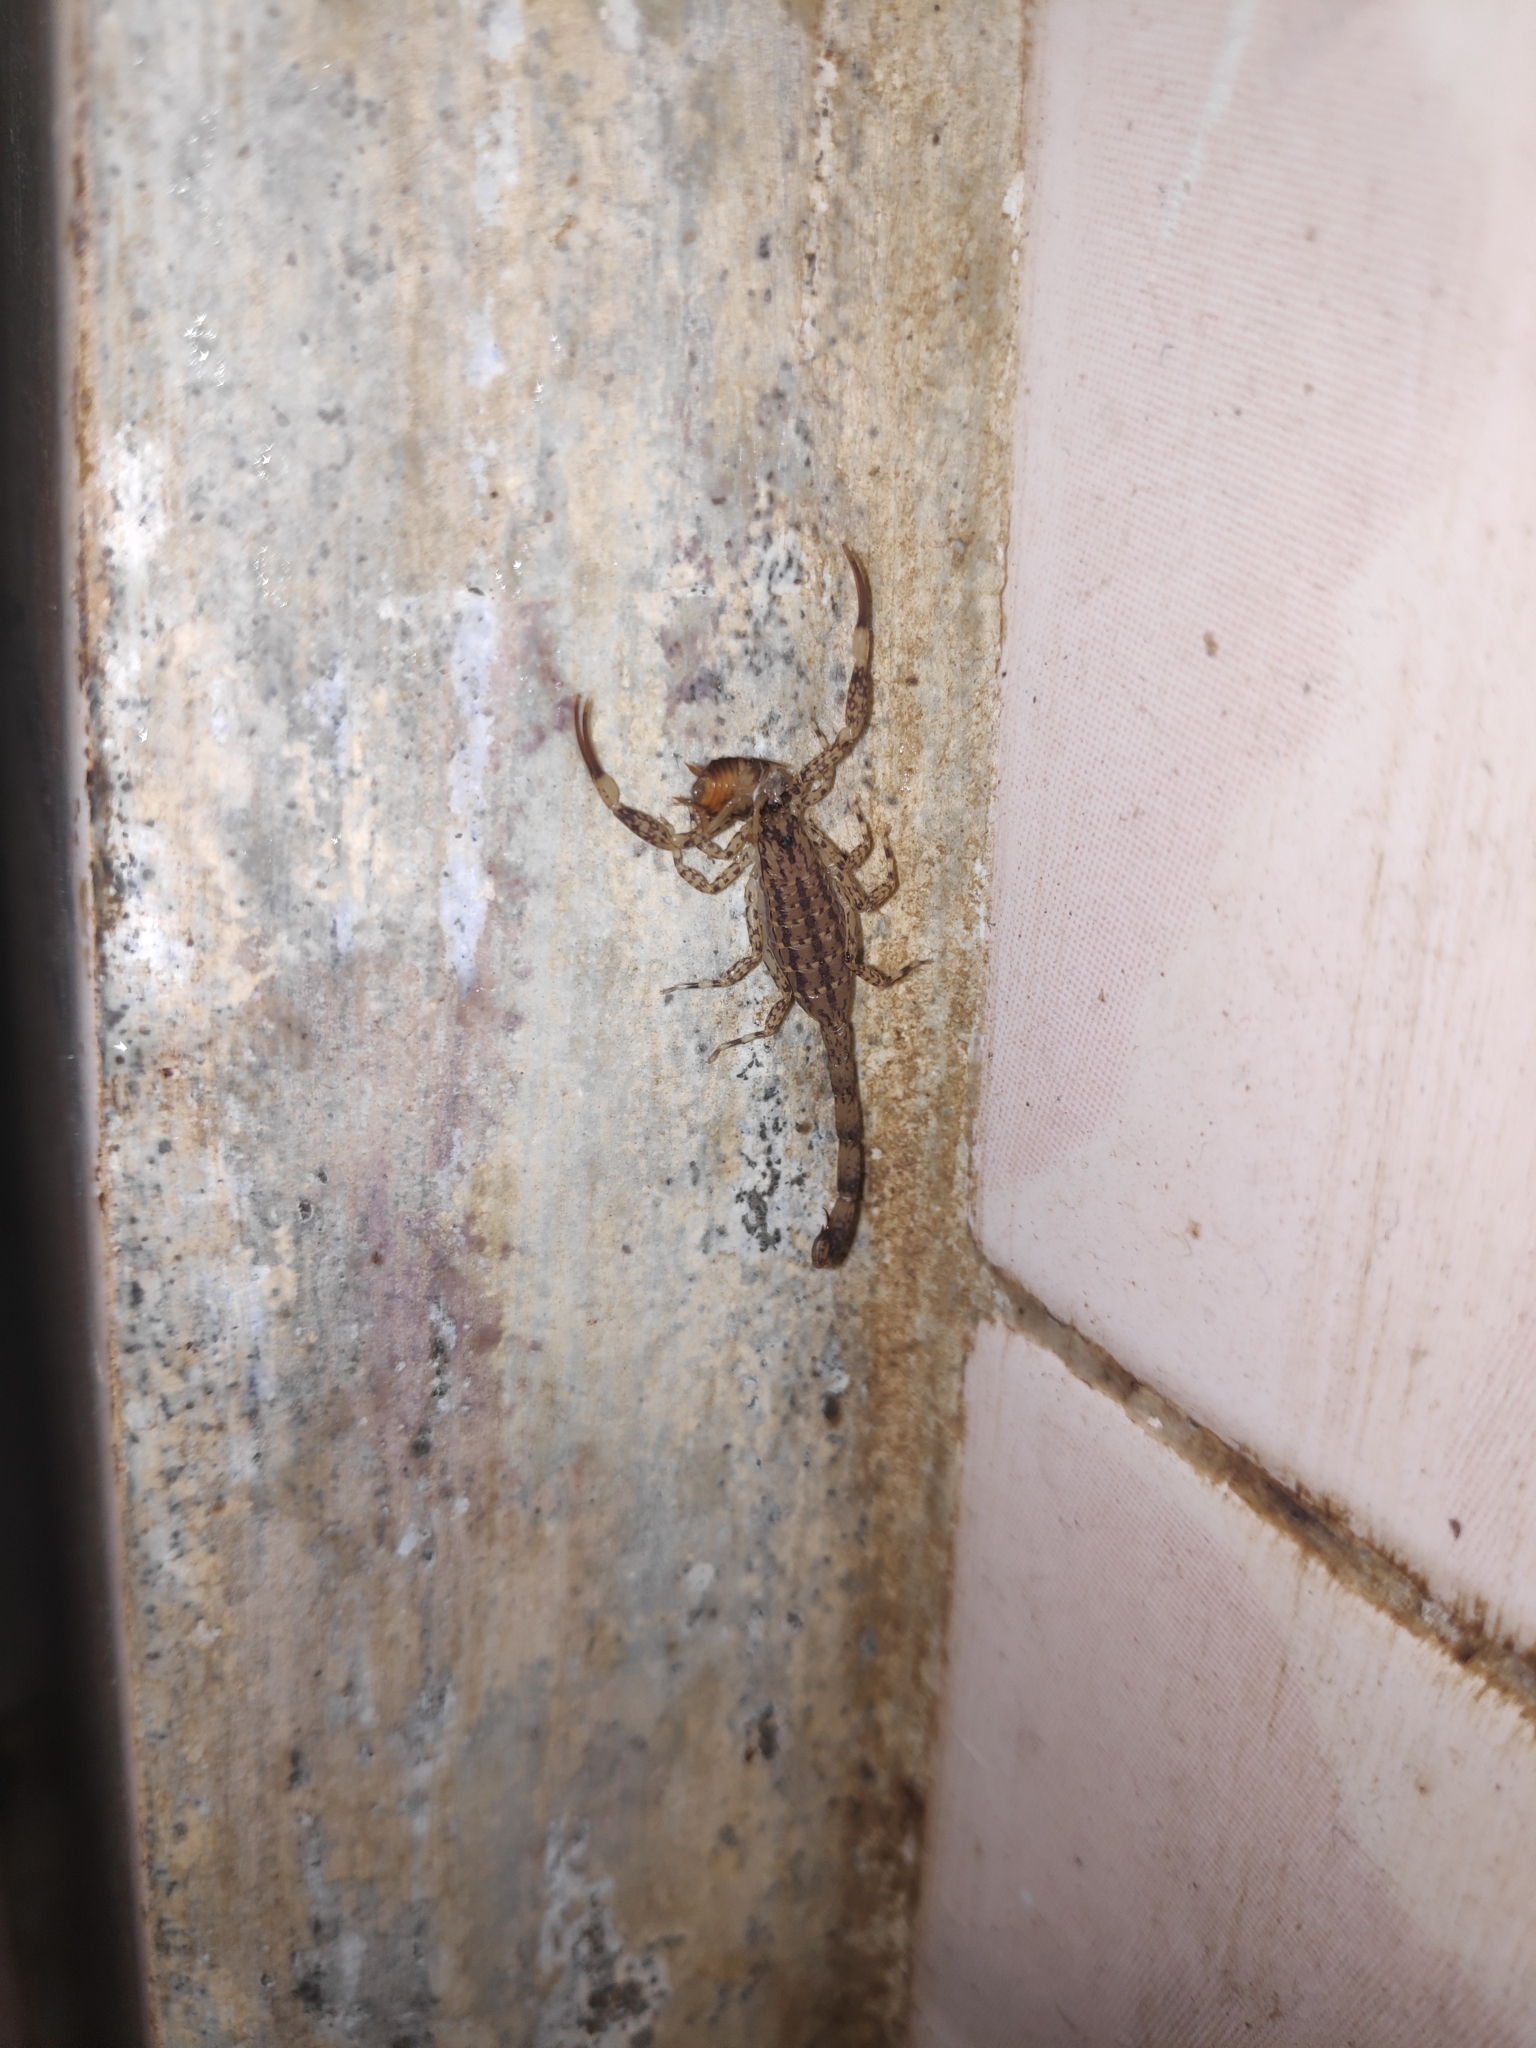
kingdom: Animalia
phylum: Arthropoda
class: Arachnida
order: Scorpiones
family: Buthidae
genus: Isometrus
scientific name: Isometrus maculatus
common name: Scorpions
